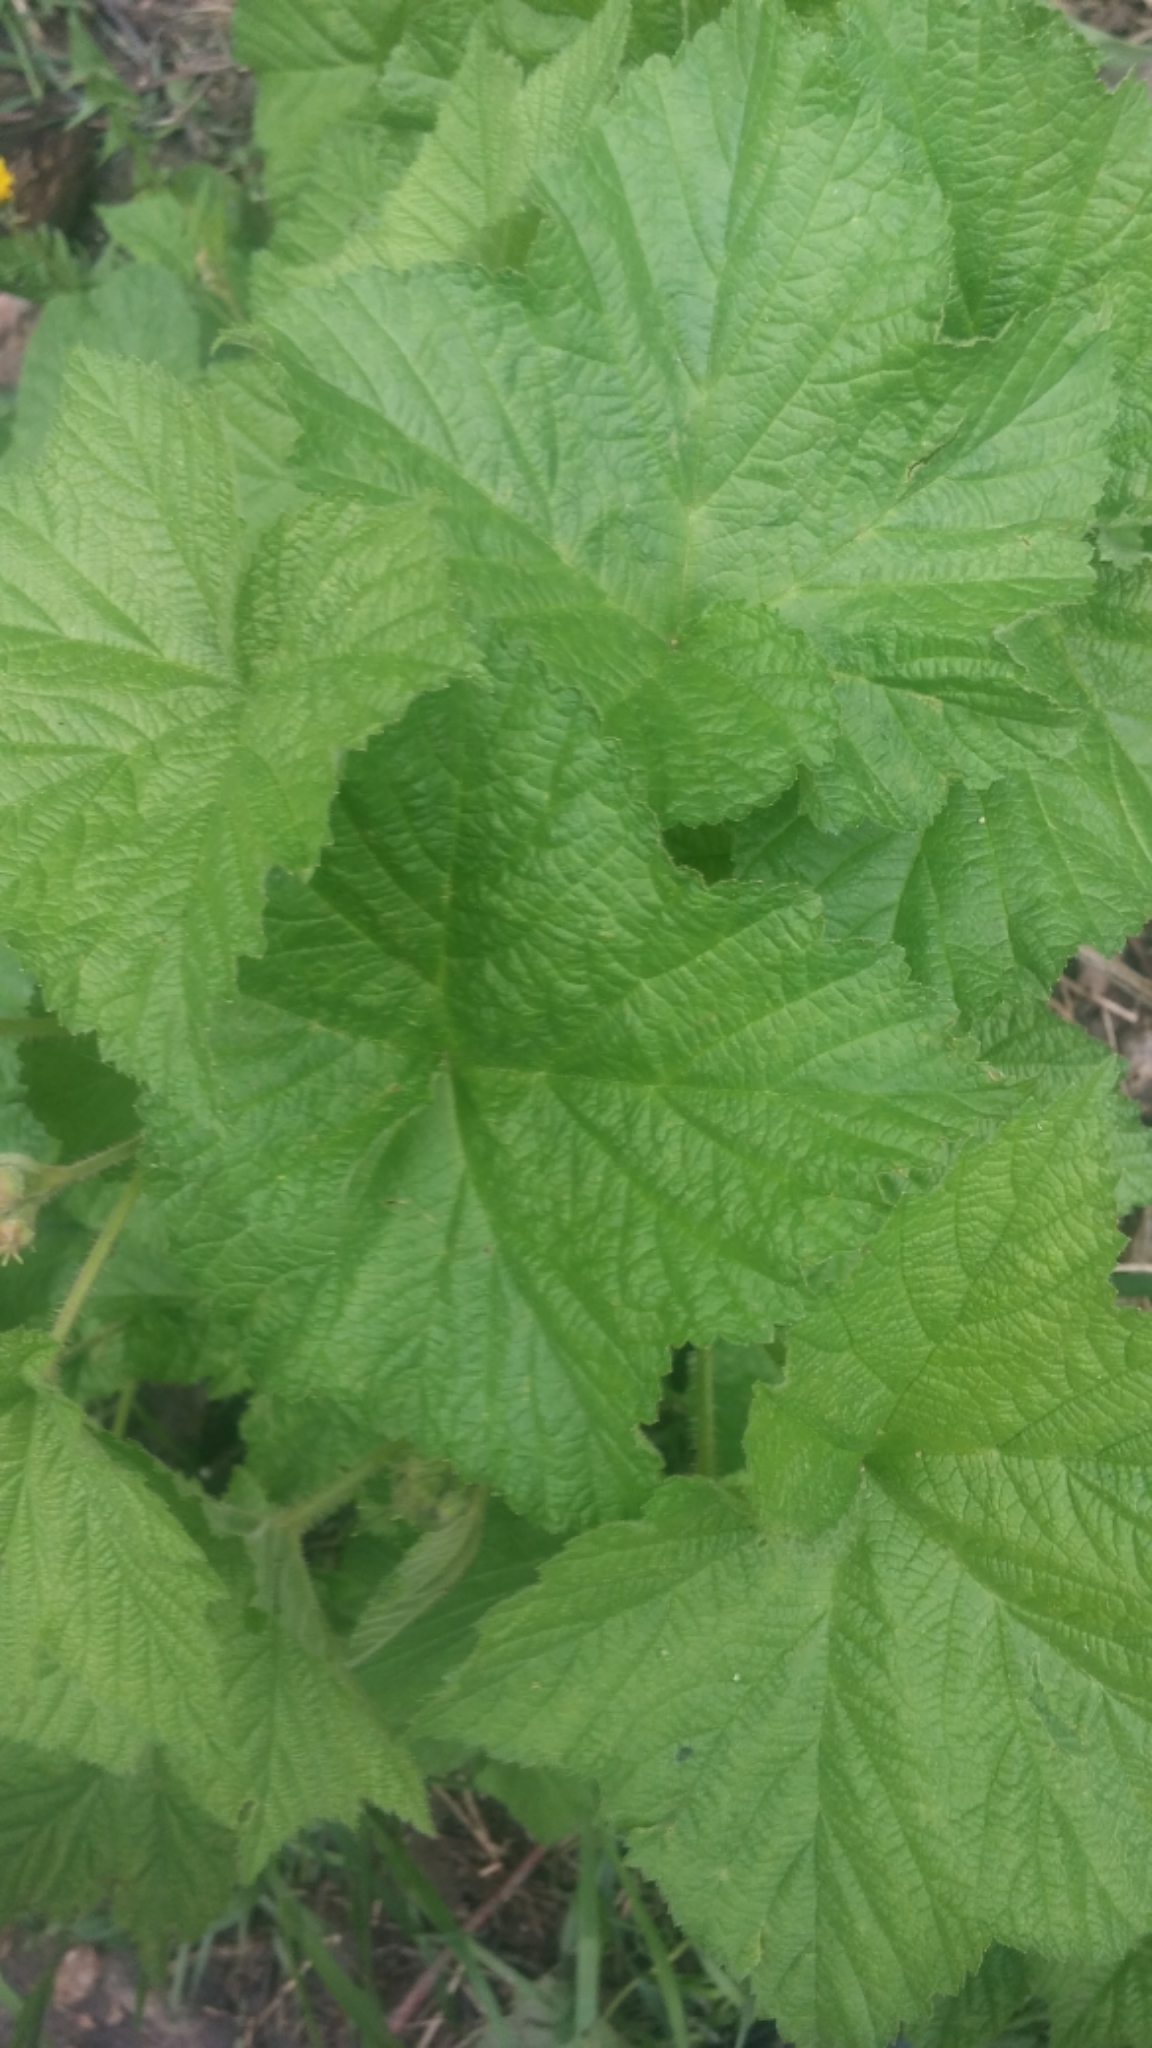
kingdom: Plantae
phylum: Tracheophyta
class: Magnoliopsida
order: Rosales
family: Rosaceae
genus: Rubus
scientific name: Rubus parviflorus
